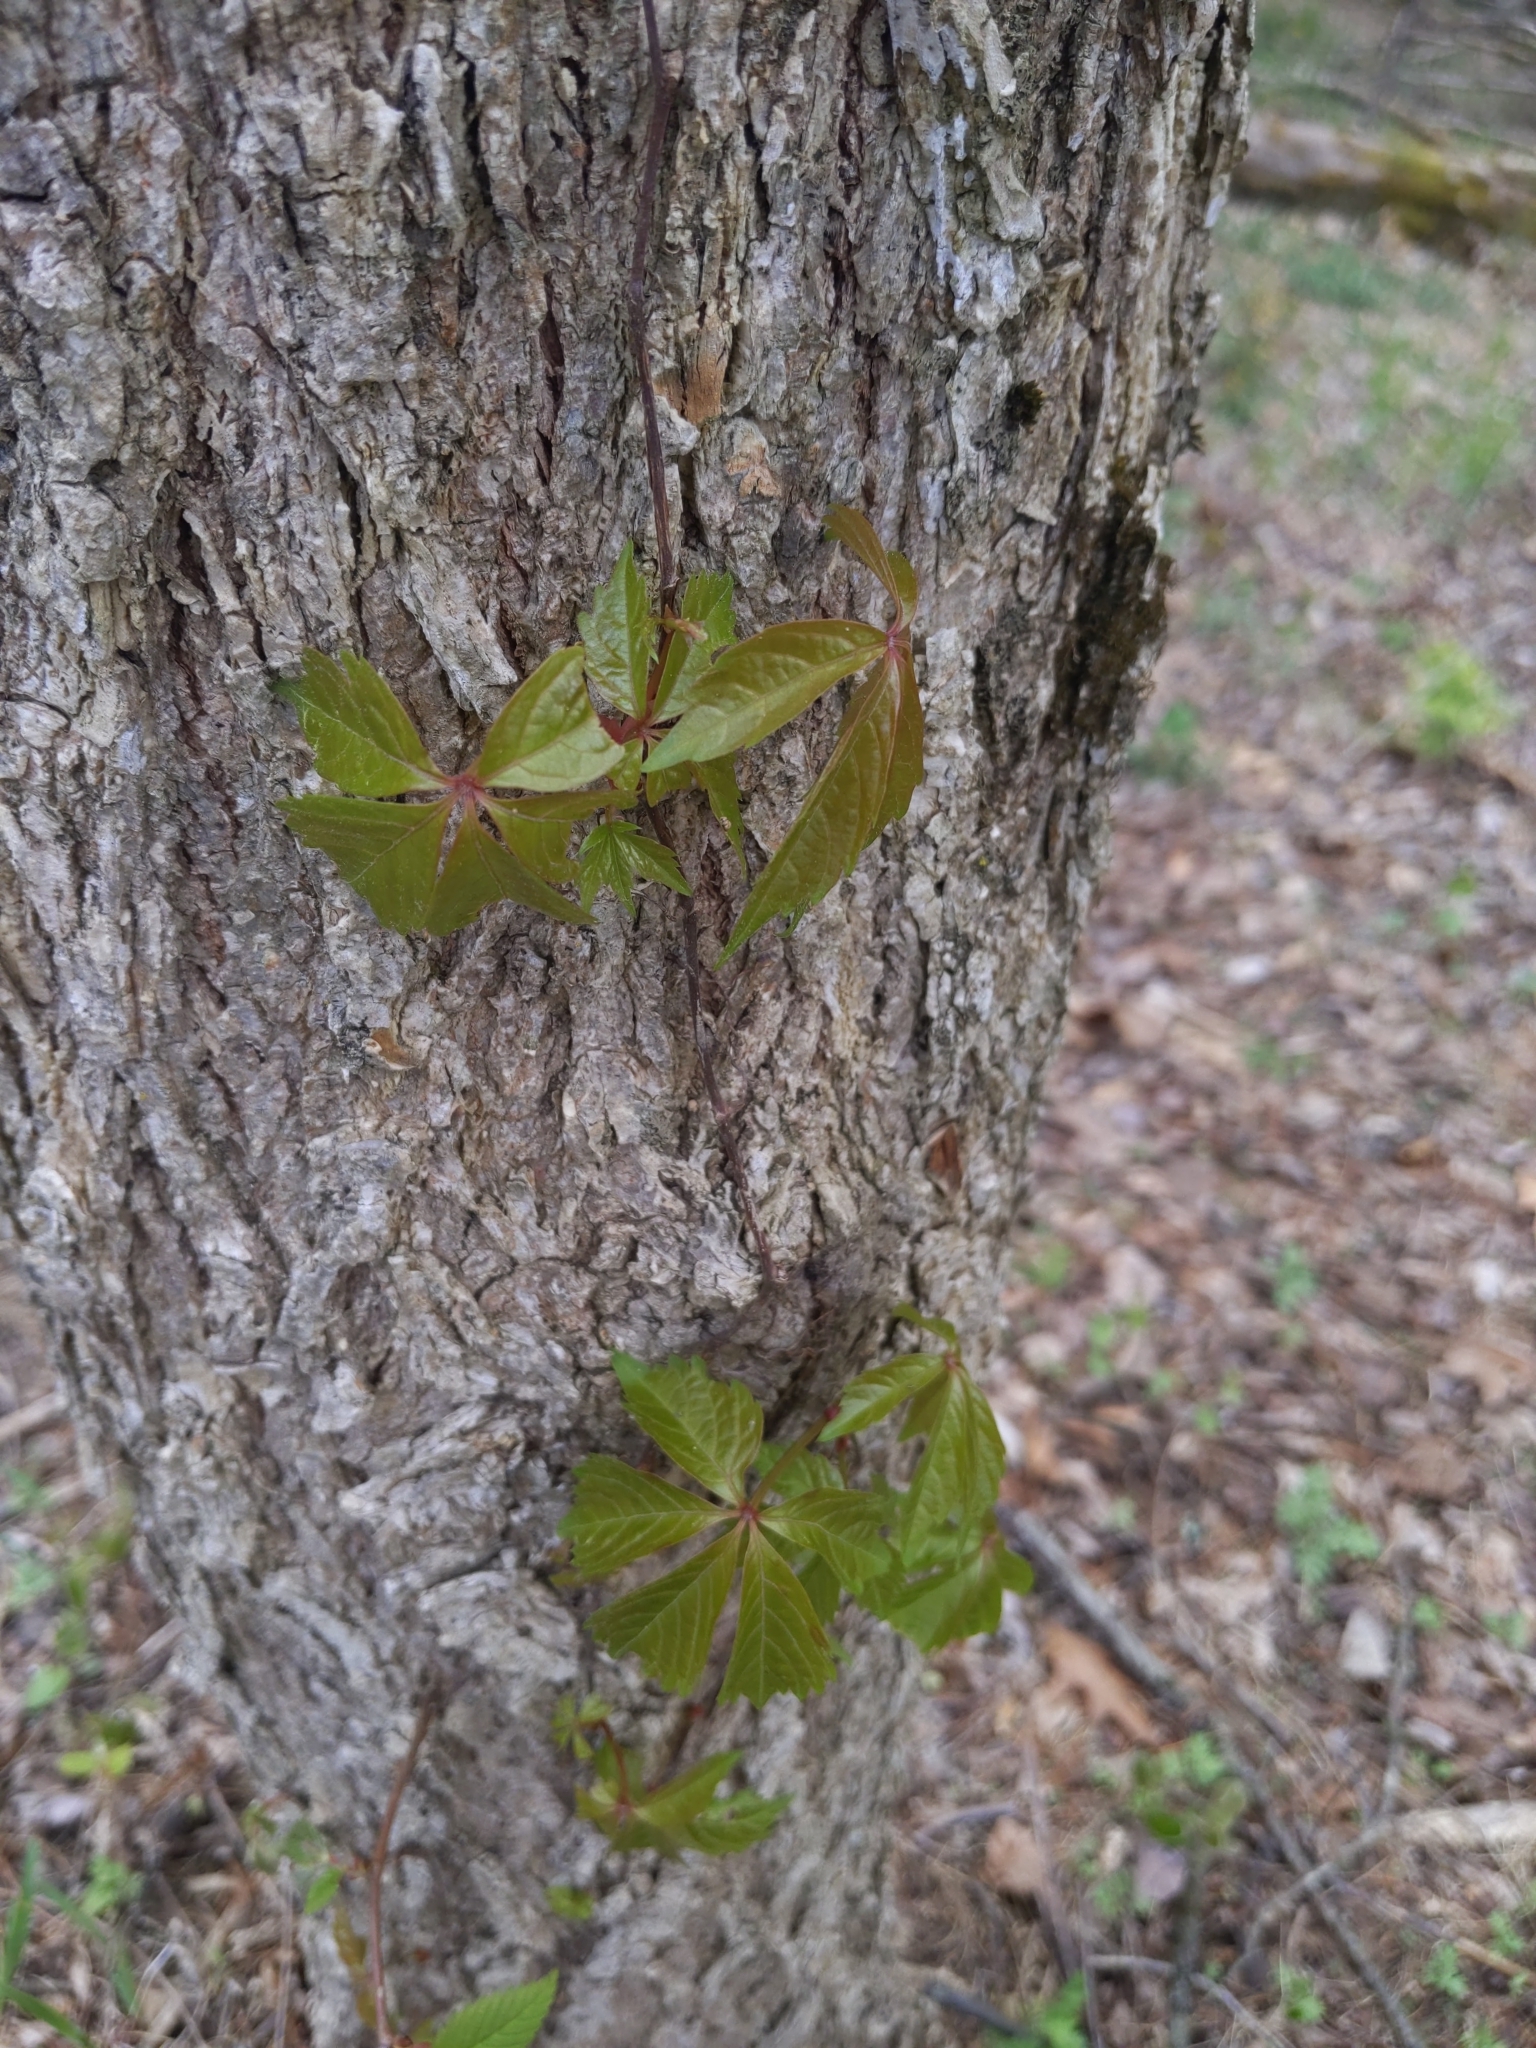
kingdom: Plantae
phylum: Tracheophyta
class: Magnoliopsida
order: Vitales
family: Vitaceae
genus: Parthenocissus
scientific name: Parthenocissus quinquefolia
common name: Virginia-creeper
